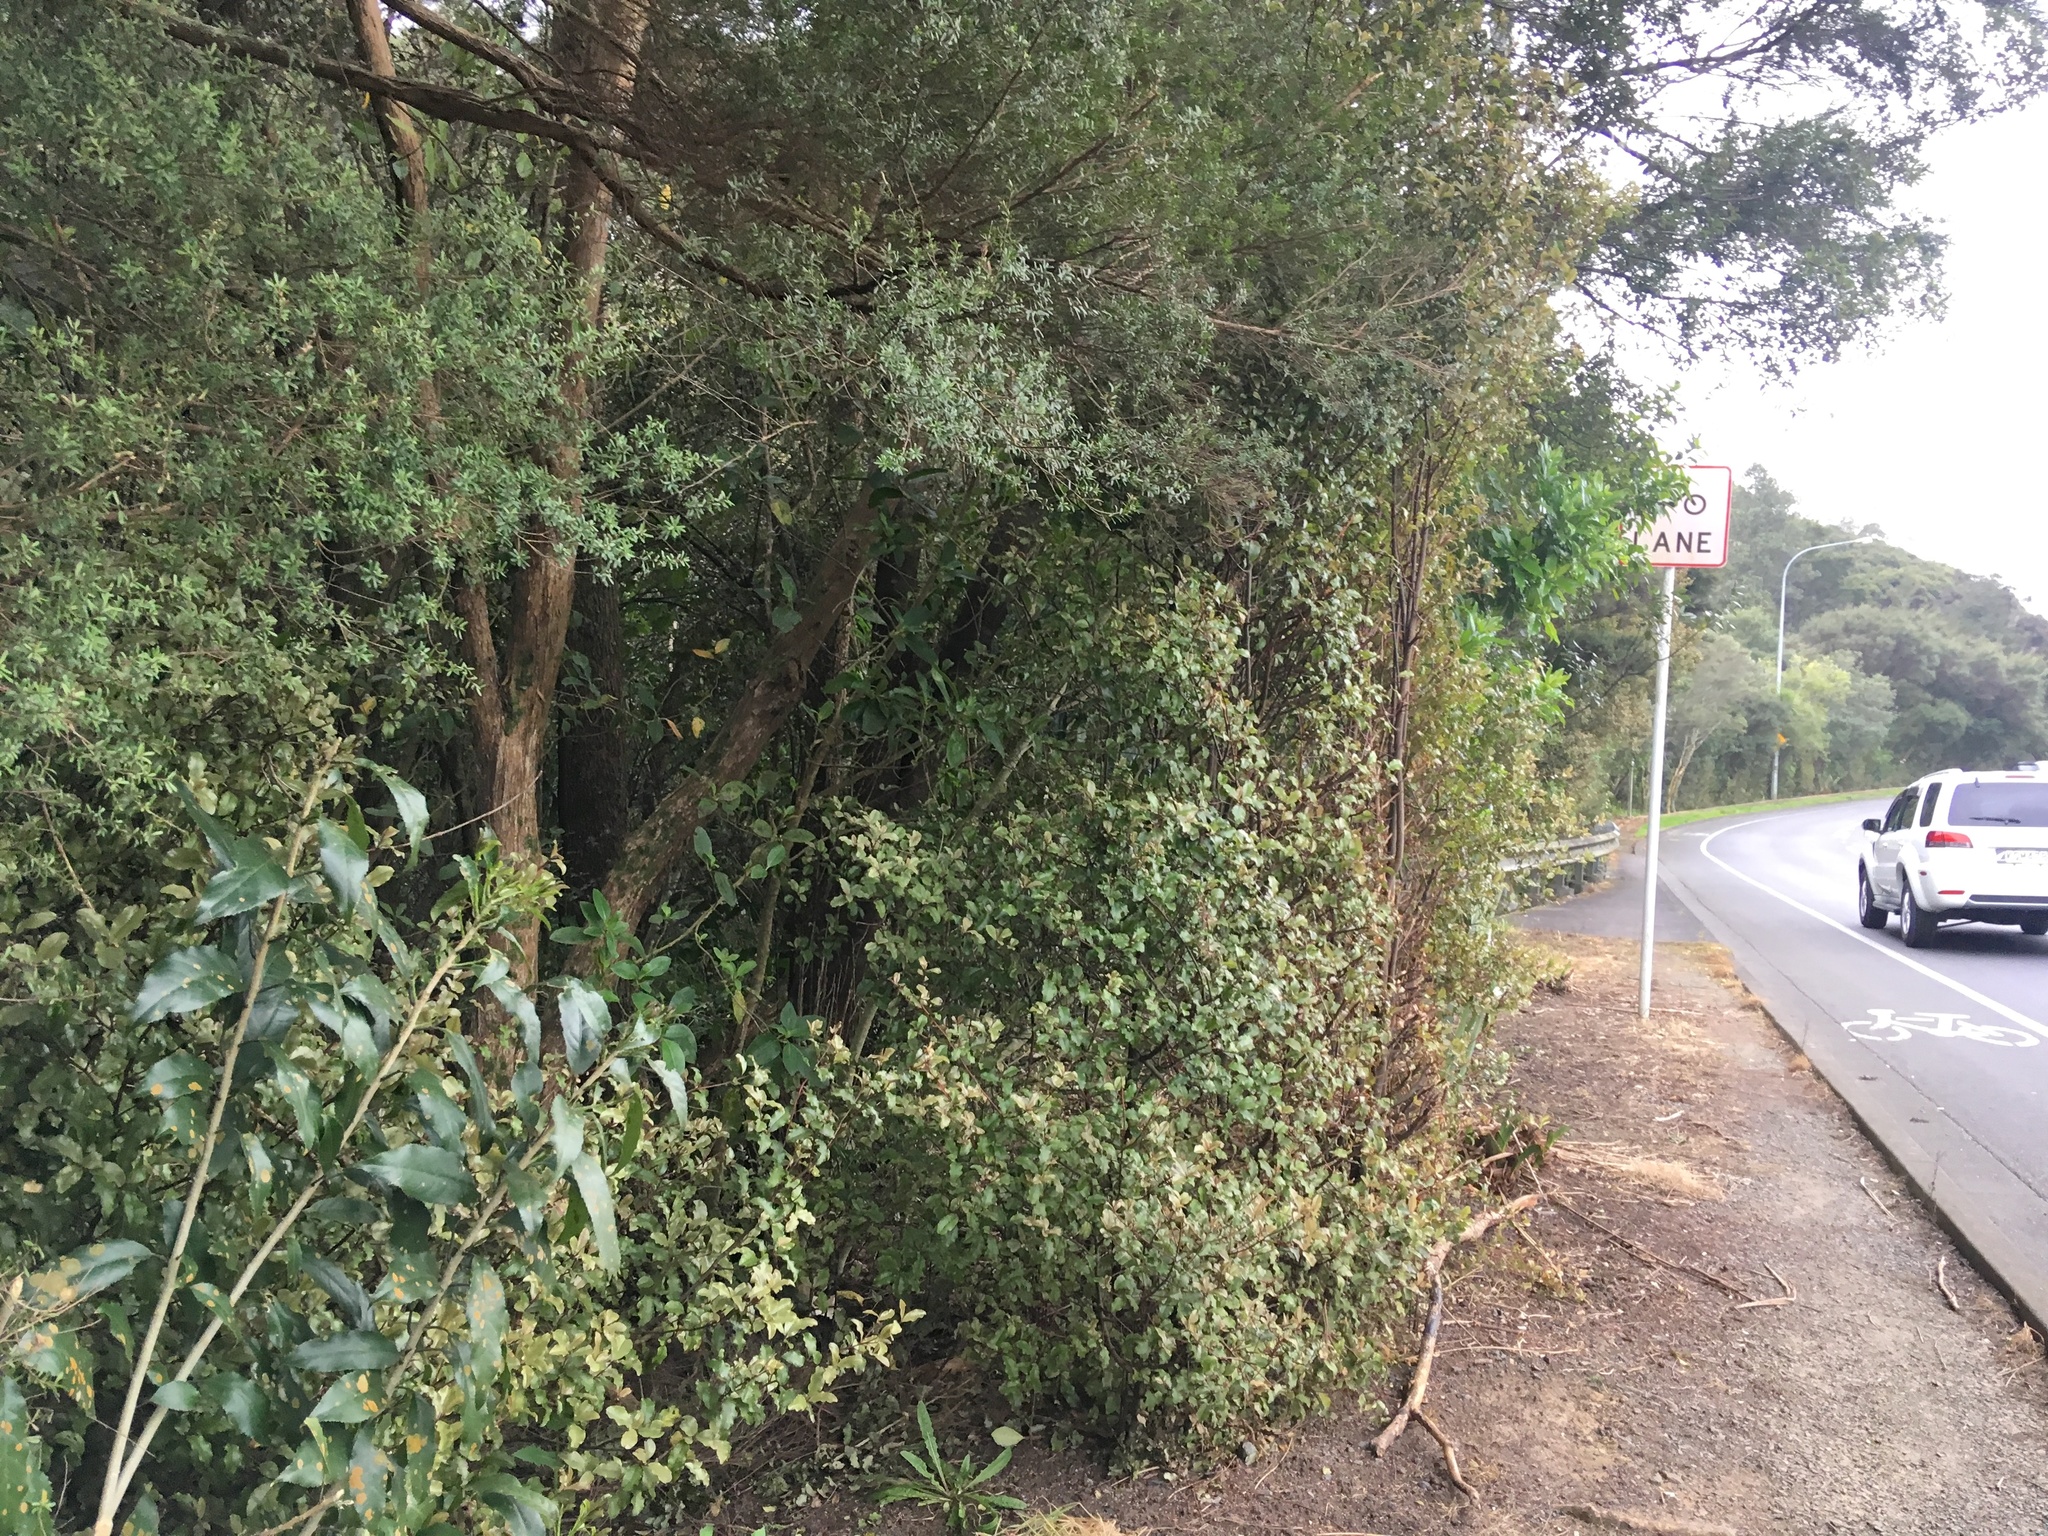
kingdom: Plantae
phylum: Tracheophyta
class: Magnoliopsida
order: Ericales
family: Primulaceae
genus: Myrsine
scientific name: Myrsine australis
